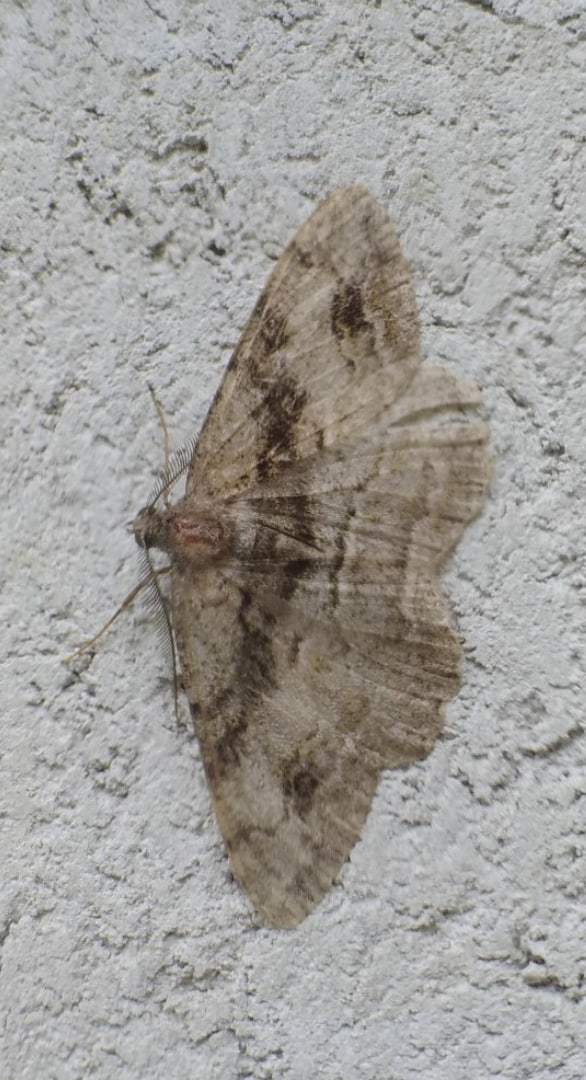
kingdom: Animalia
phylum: Arthropoda
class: Insecta
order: Lepidoptera
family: Geometridae
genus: Alcis
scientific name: Alcis deversata
